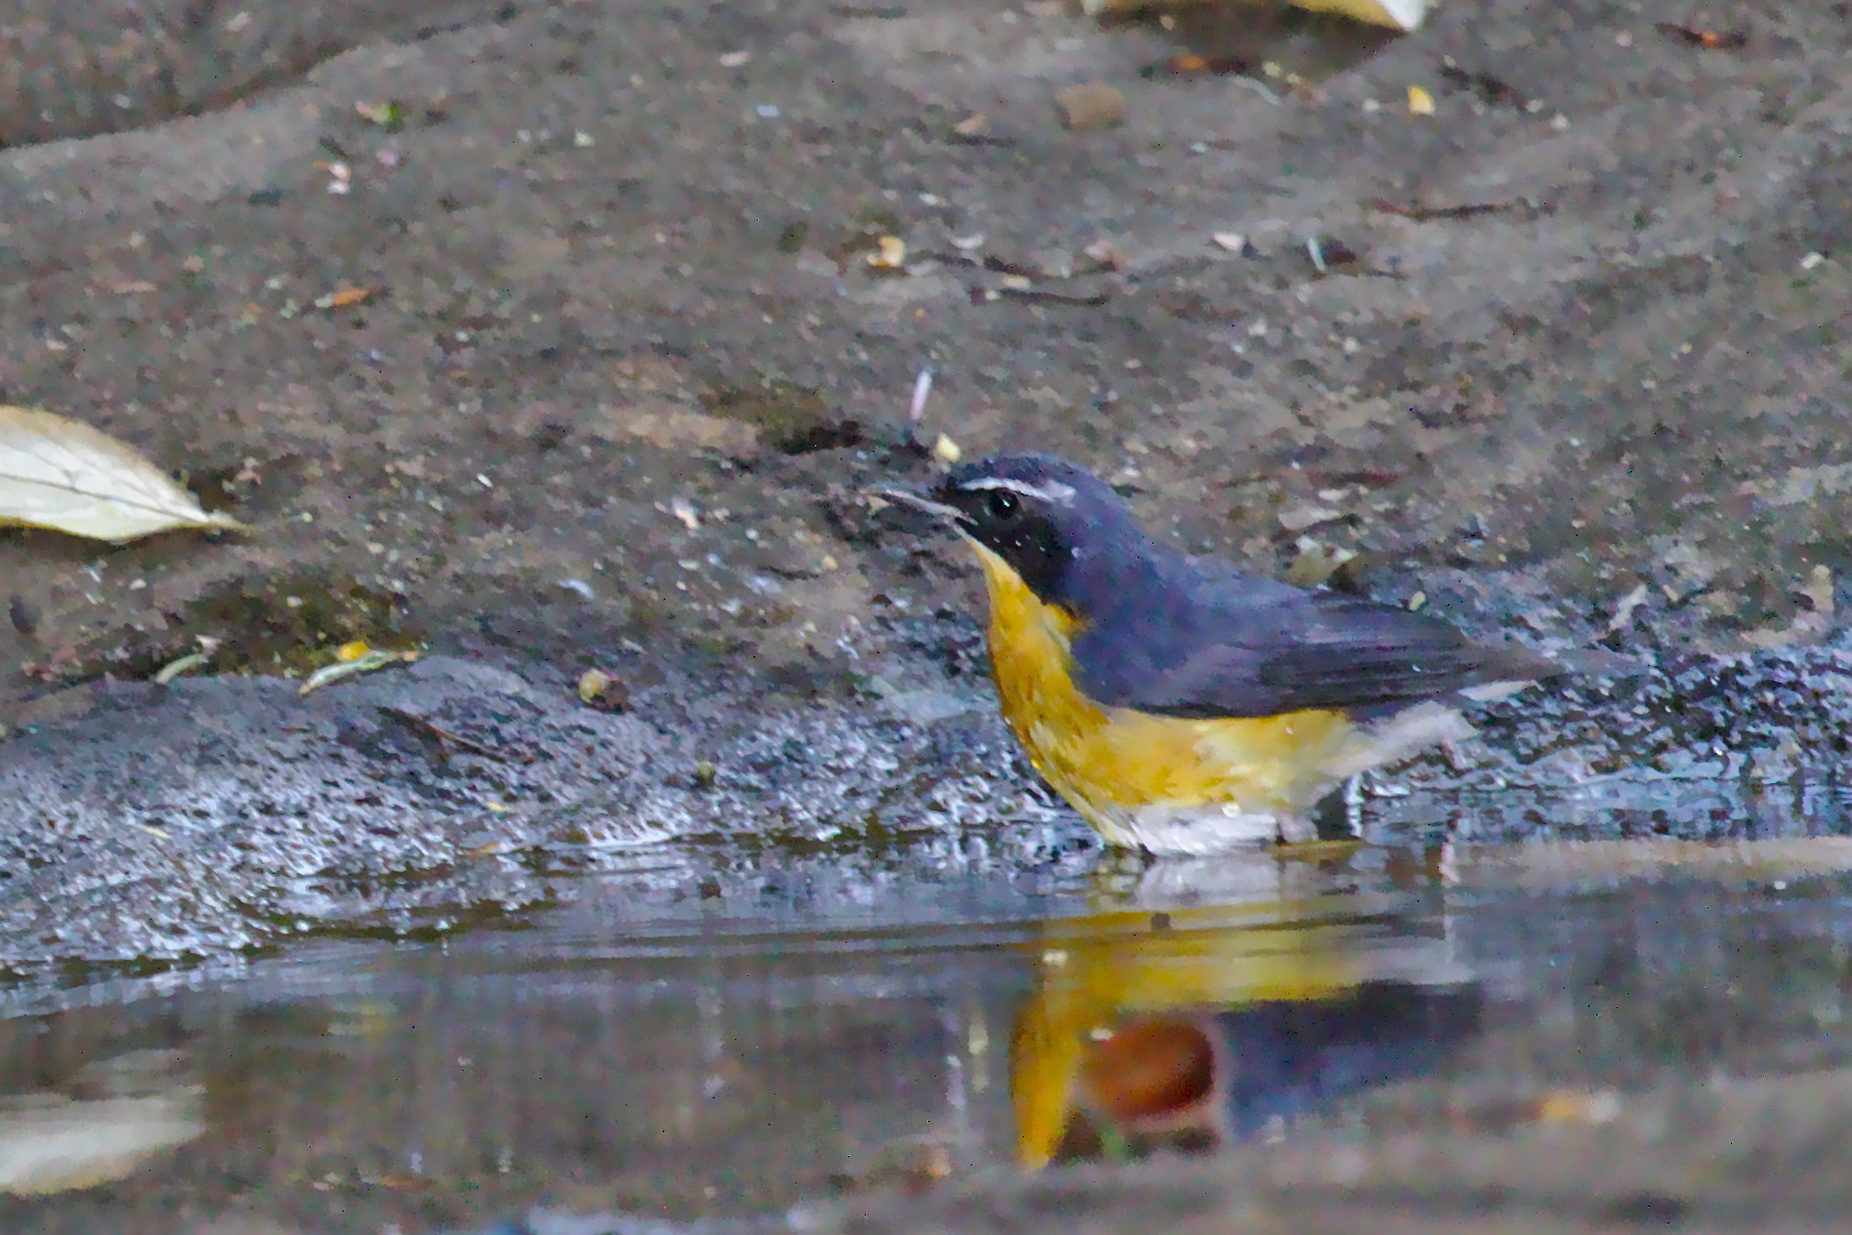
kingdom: Animalia
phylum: Chordata
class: Aves
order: Passeriformes
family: Muscicapidae
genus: Luscinia
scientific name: Luscinia brunnea
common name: Indian blue robin
